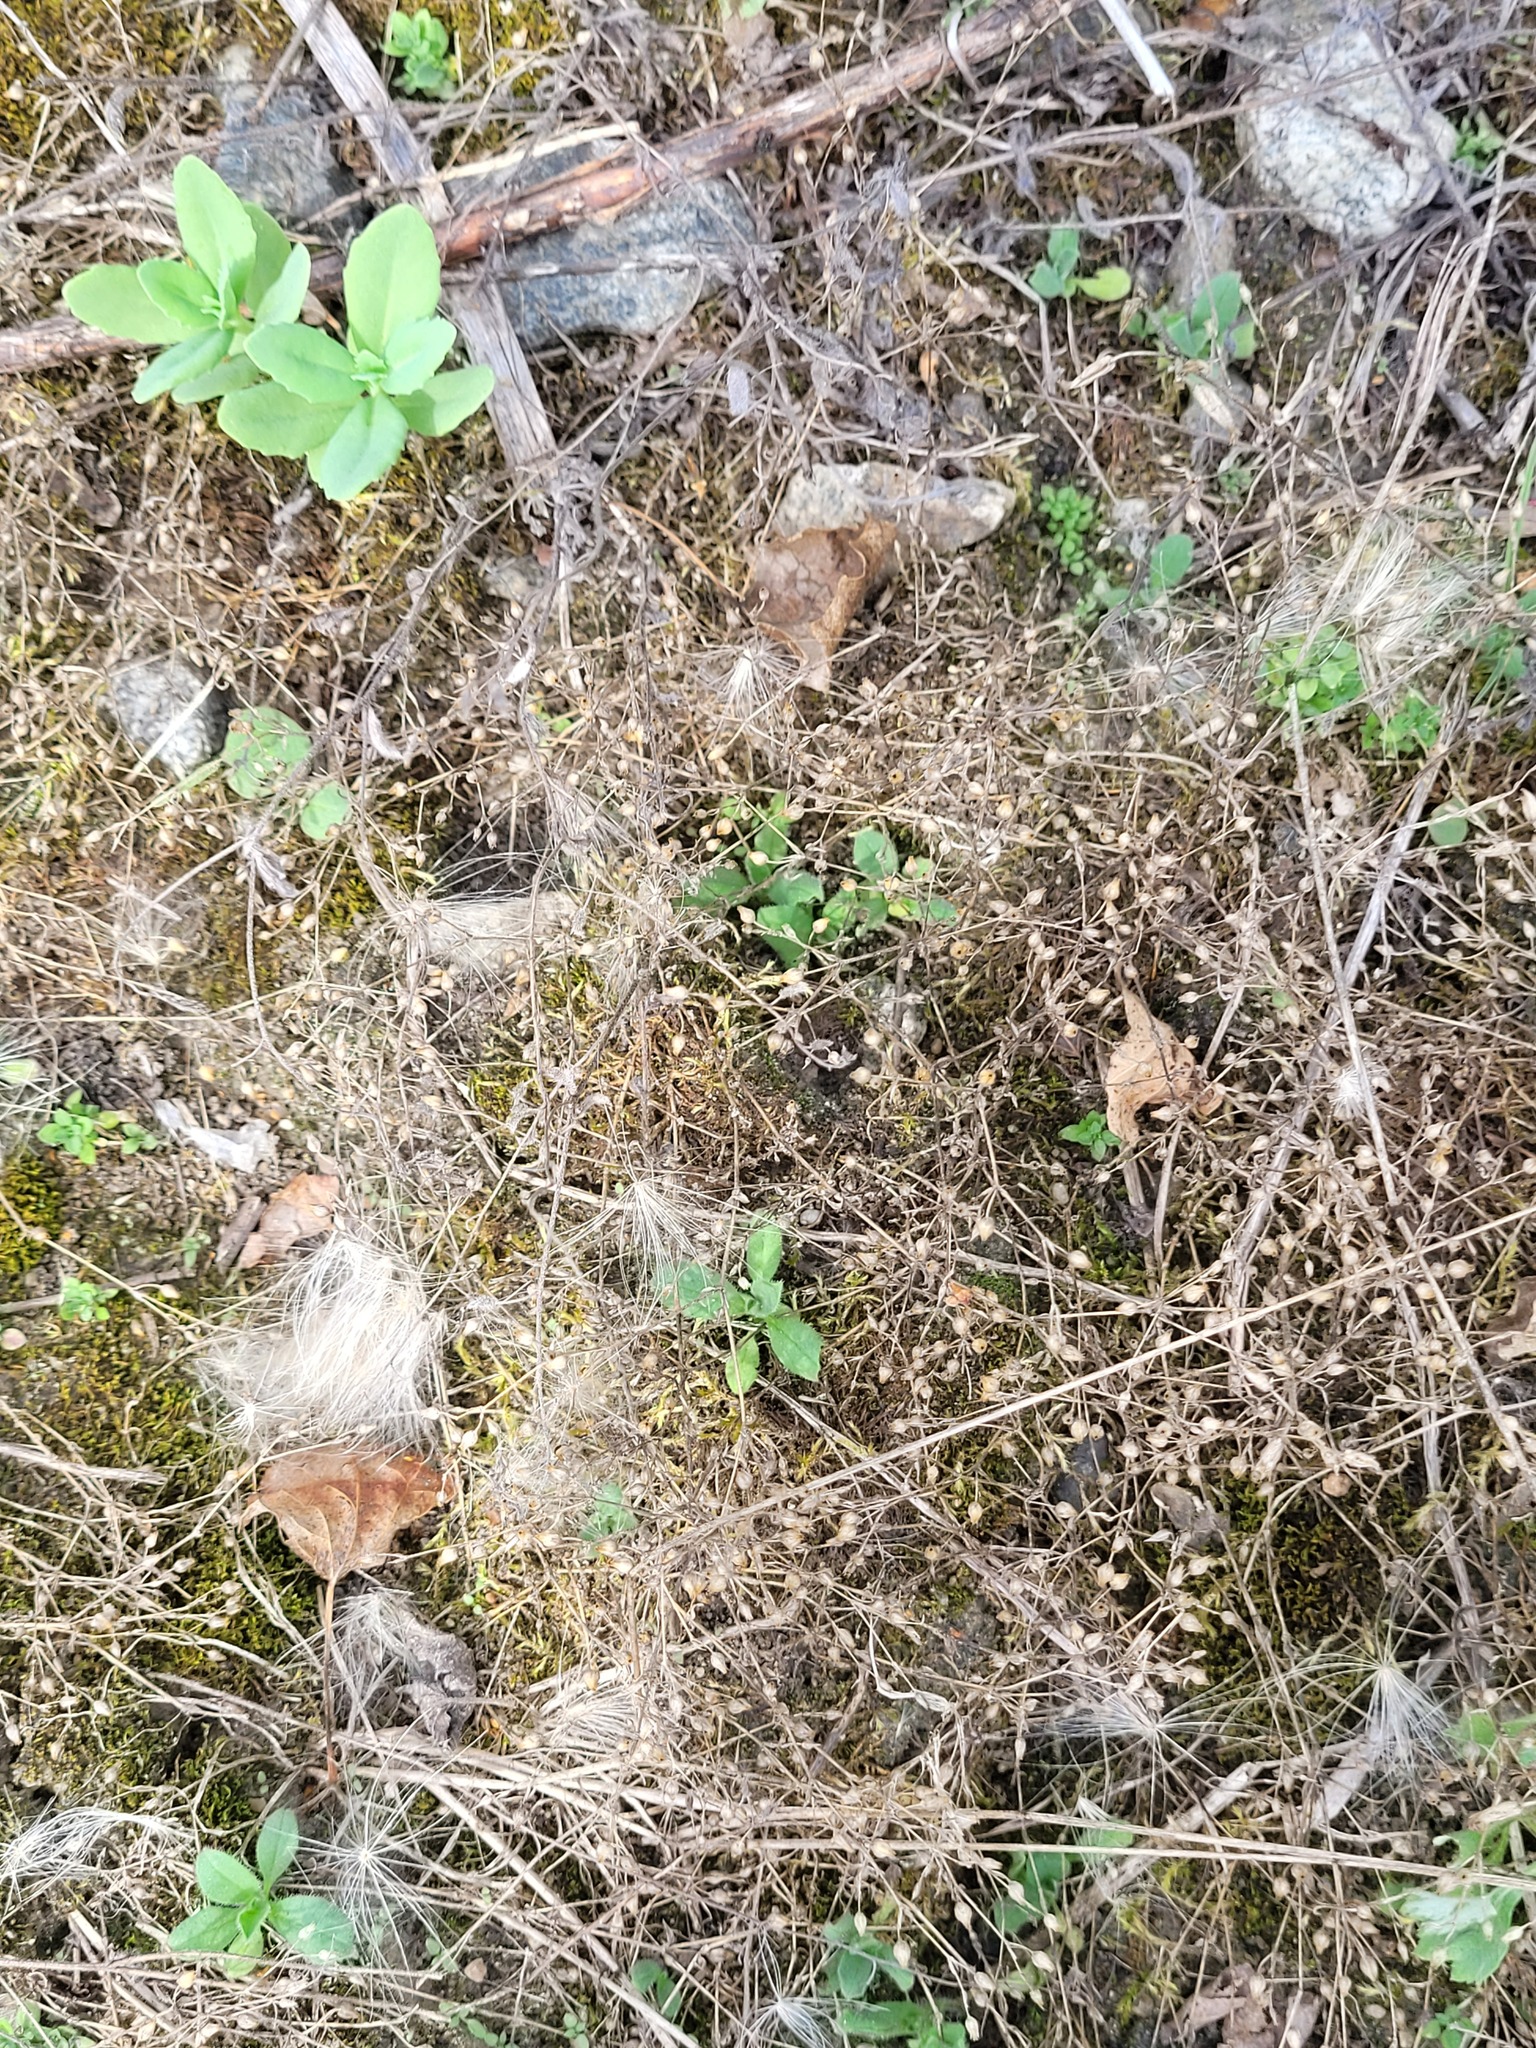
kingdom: Plantae
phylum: Tracheophyta
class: Magnoliopsida
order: Caryophyllales
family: Caryophyllaceae
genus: Arenaria
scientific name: Arenaria serpyllifolia
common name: Thyme-leaved sandwort
